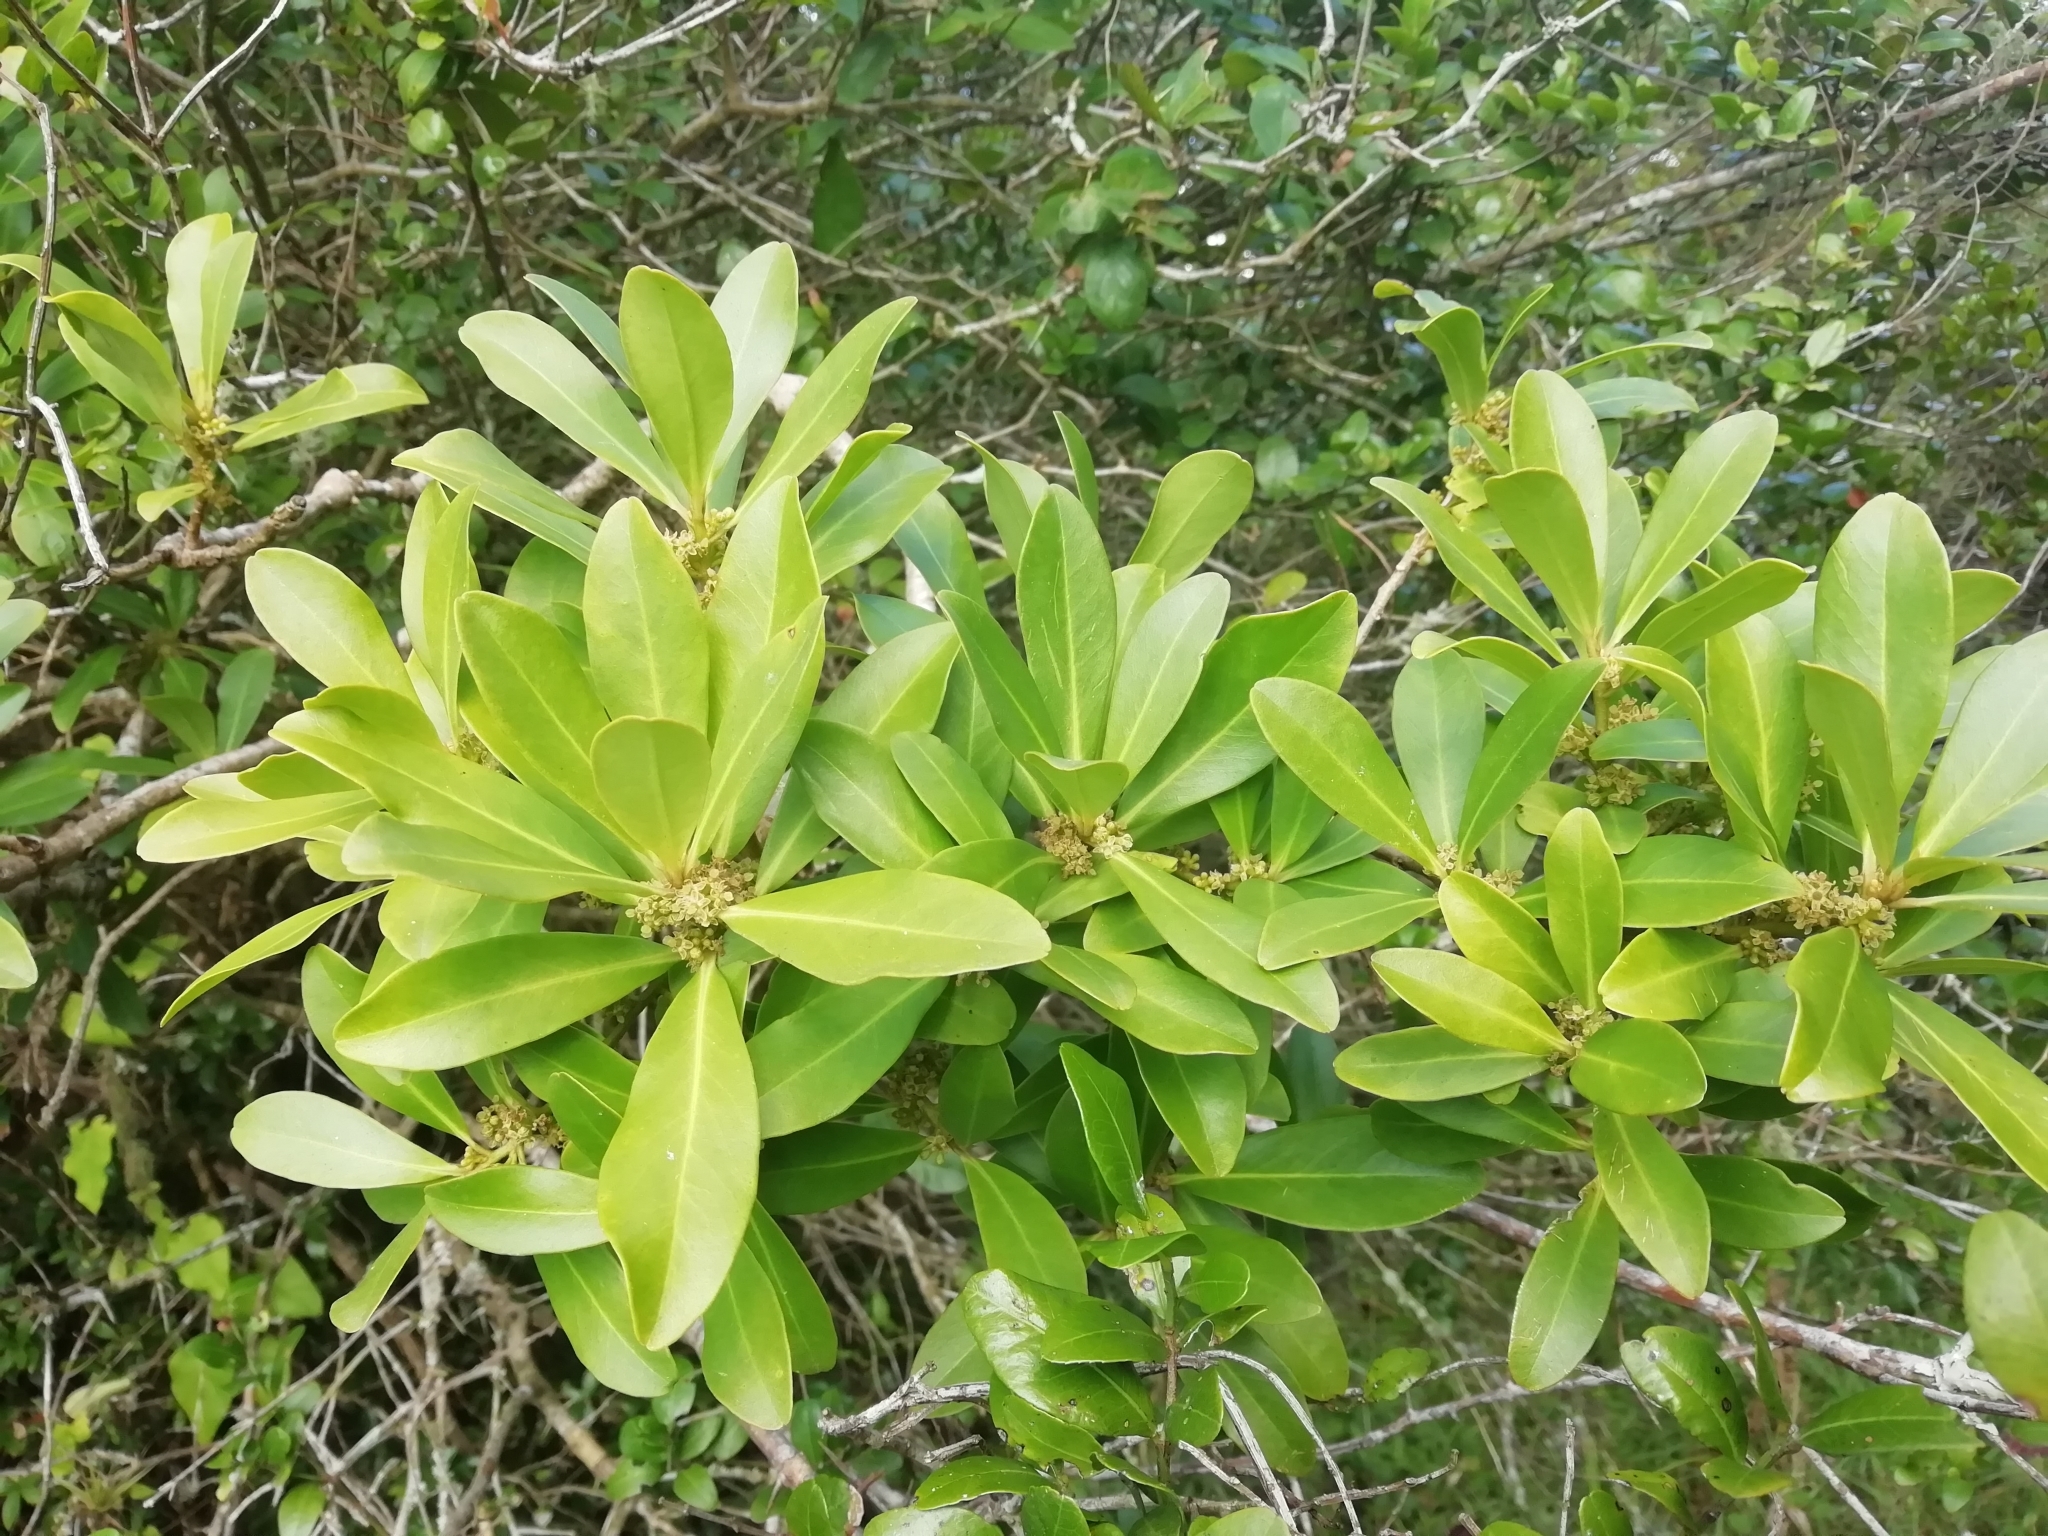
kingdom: Plantae
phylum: Tracheophyta
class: Magnoliopsida
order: Ericales
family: Primulaceae
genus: Myrsine
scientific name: Myrsine laetevirens
